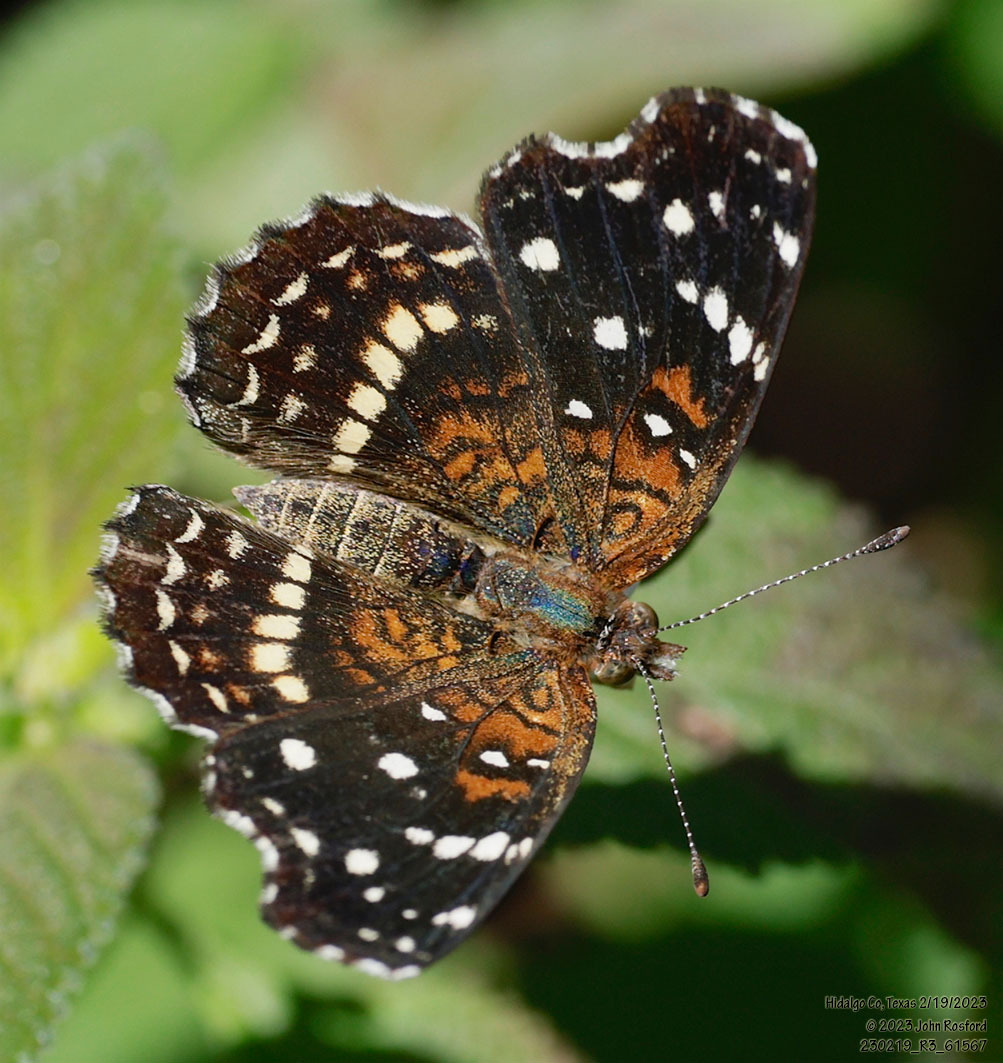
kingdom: Animalia
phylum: Arthropoda
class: Insecta
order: Lepidoptera
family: Nymphalidae
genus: Anthanassa
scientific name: Anthanassa texana
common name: Texan crescent
